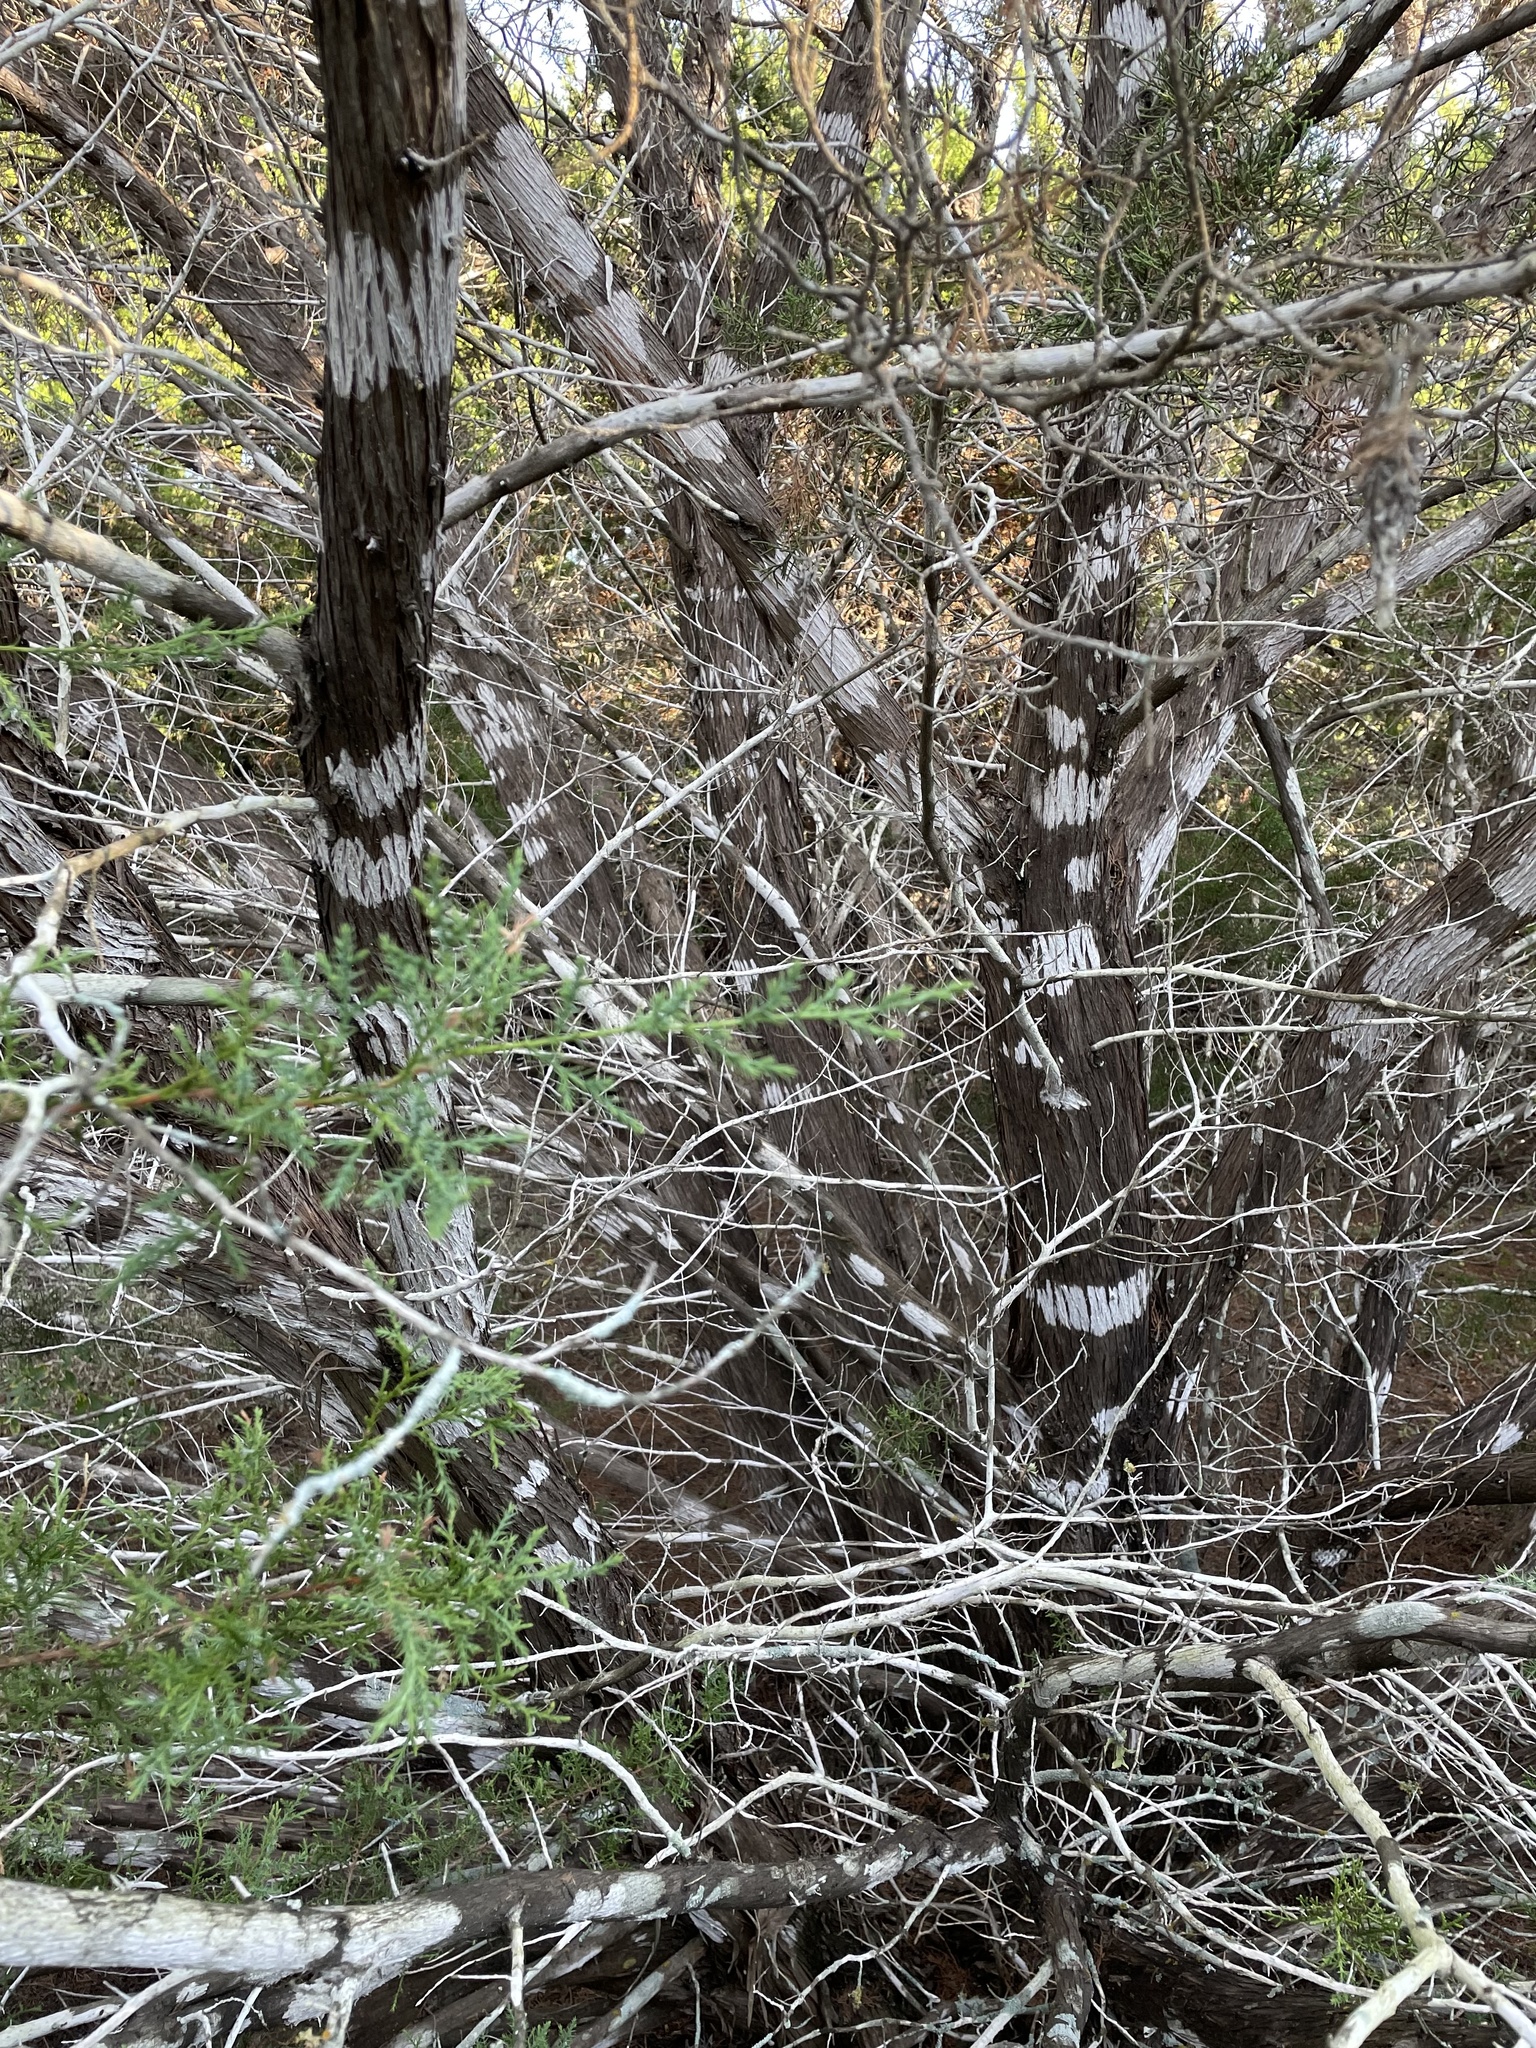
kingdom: Fungi
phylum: Ascomycota
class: Lecanoromycetes
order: Ostropales
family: Stictidaceae
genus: Robergea
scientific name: Robergea
